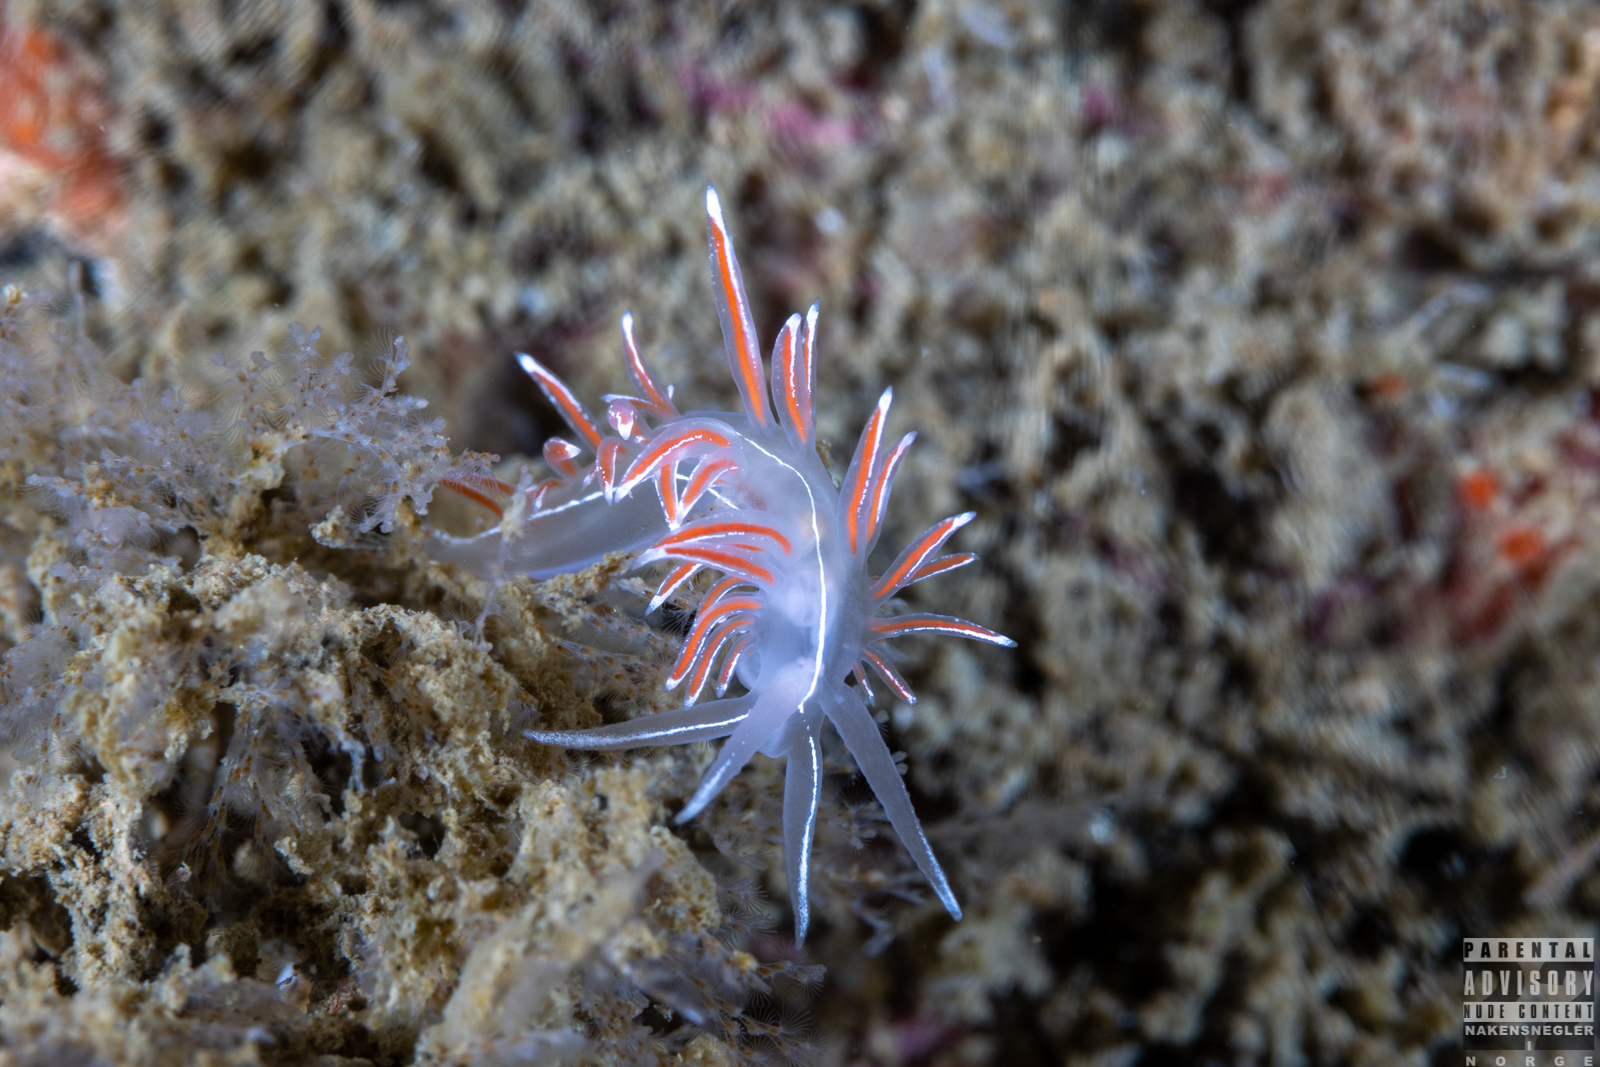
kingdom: Animalia
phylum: Mollusca
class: Gastropoda
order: Nudibranchia
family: Coryphellidae
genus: Coryphella
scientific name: Coryphella lineata
